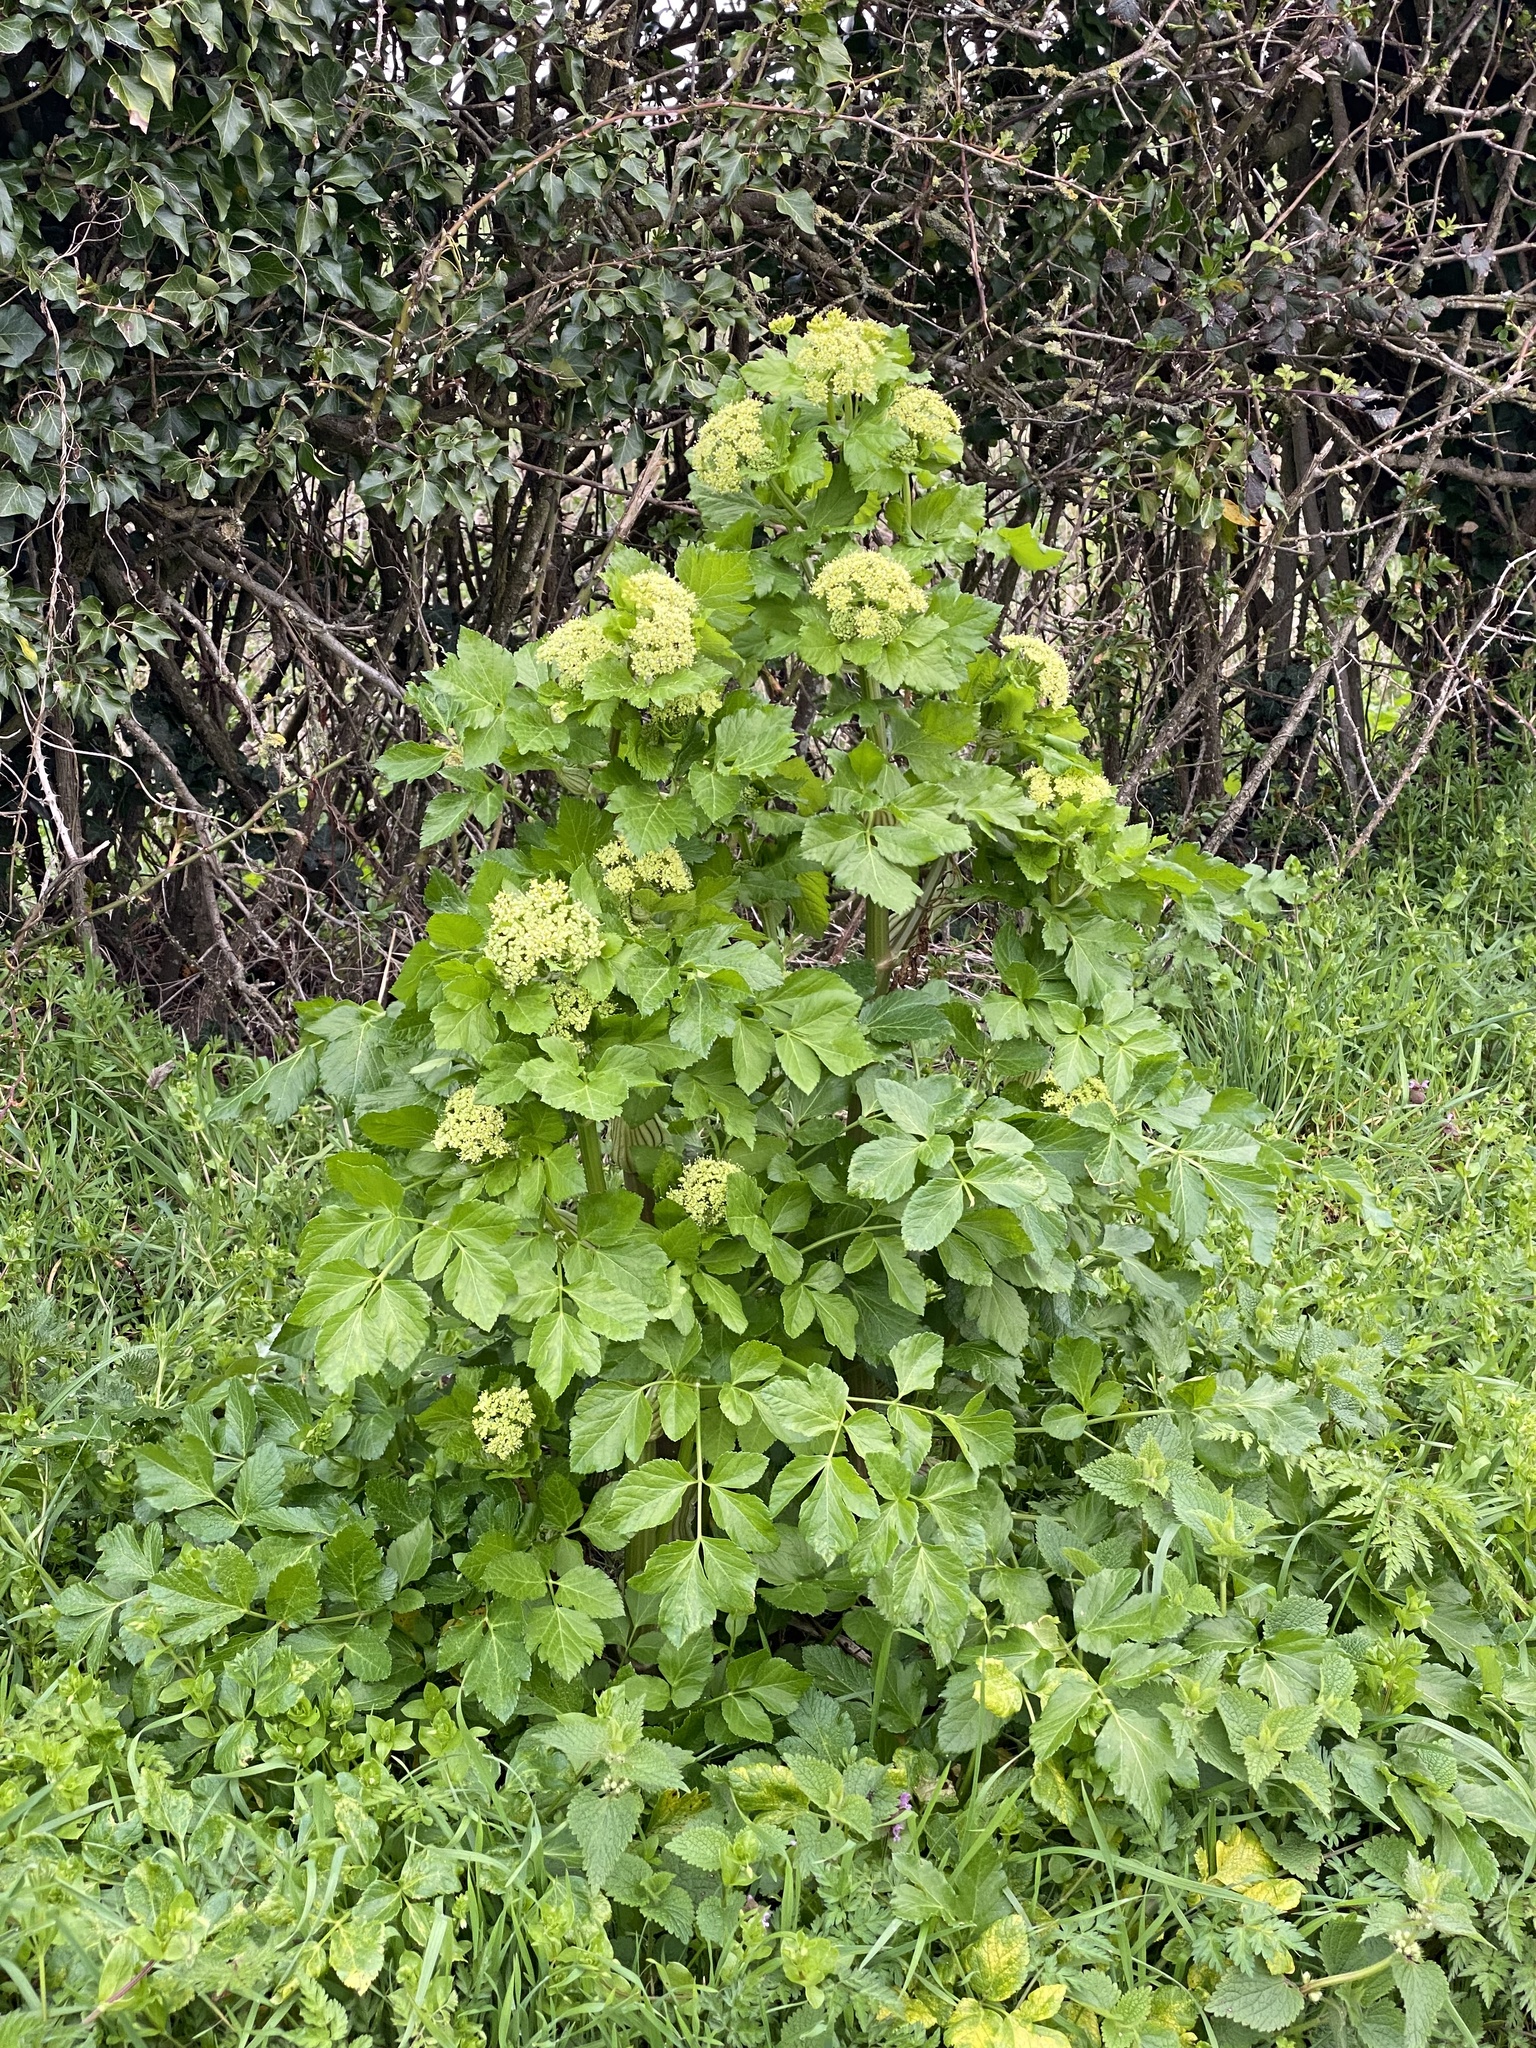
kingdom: Plantae
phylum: Tracheophyta
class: Magnoliopsida
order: Apiales
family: Apiaceae
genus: Smyrnium
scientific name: Smyrnium olusatrum
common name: Alexanders
